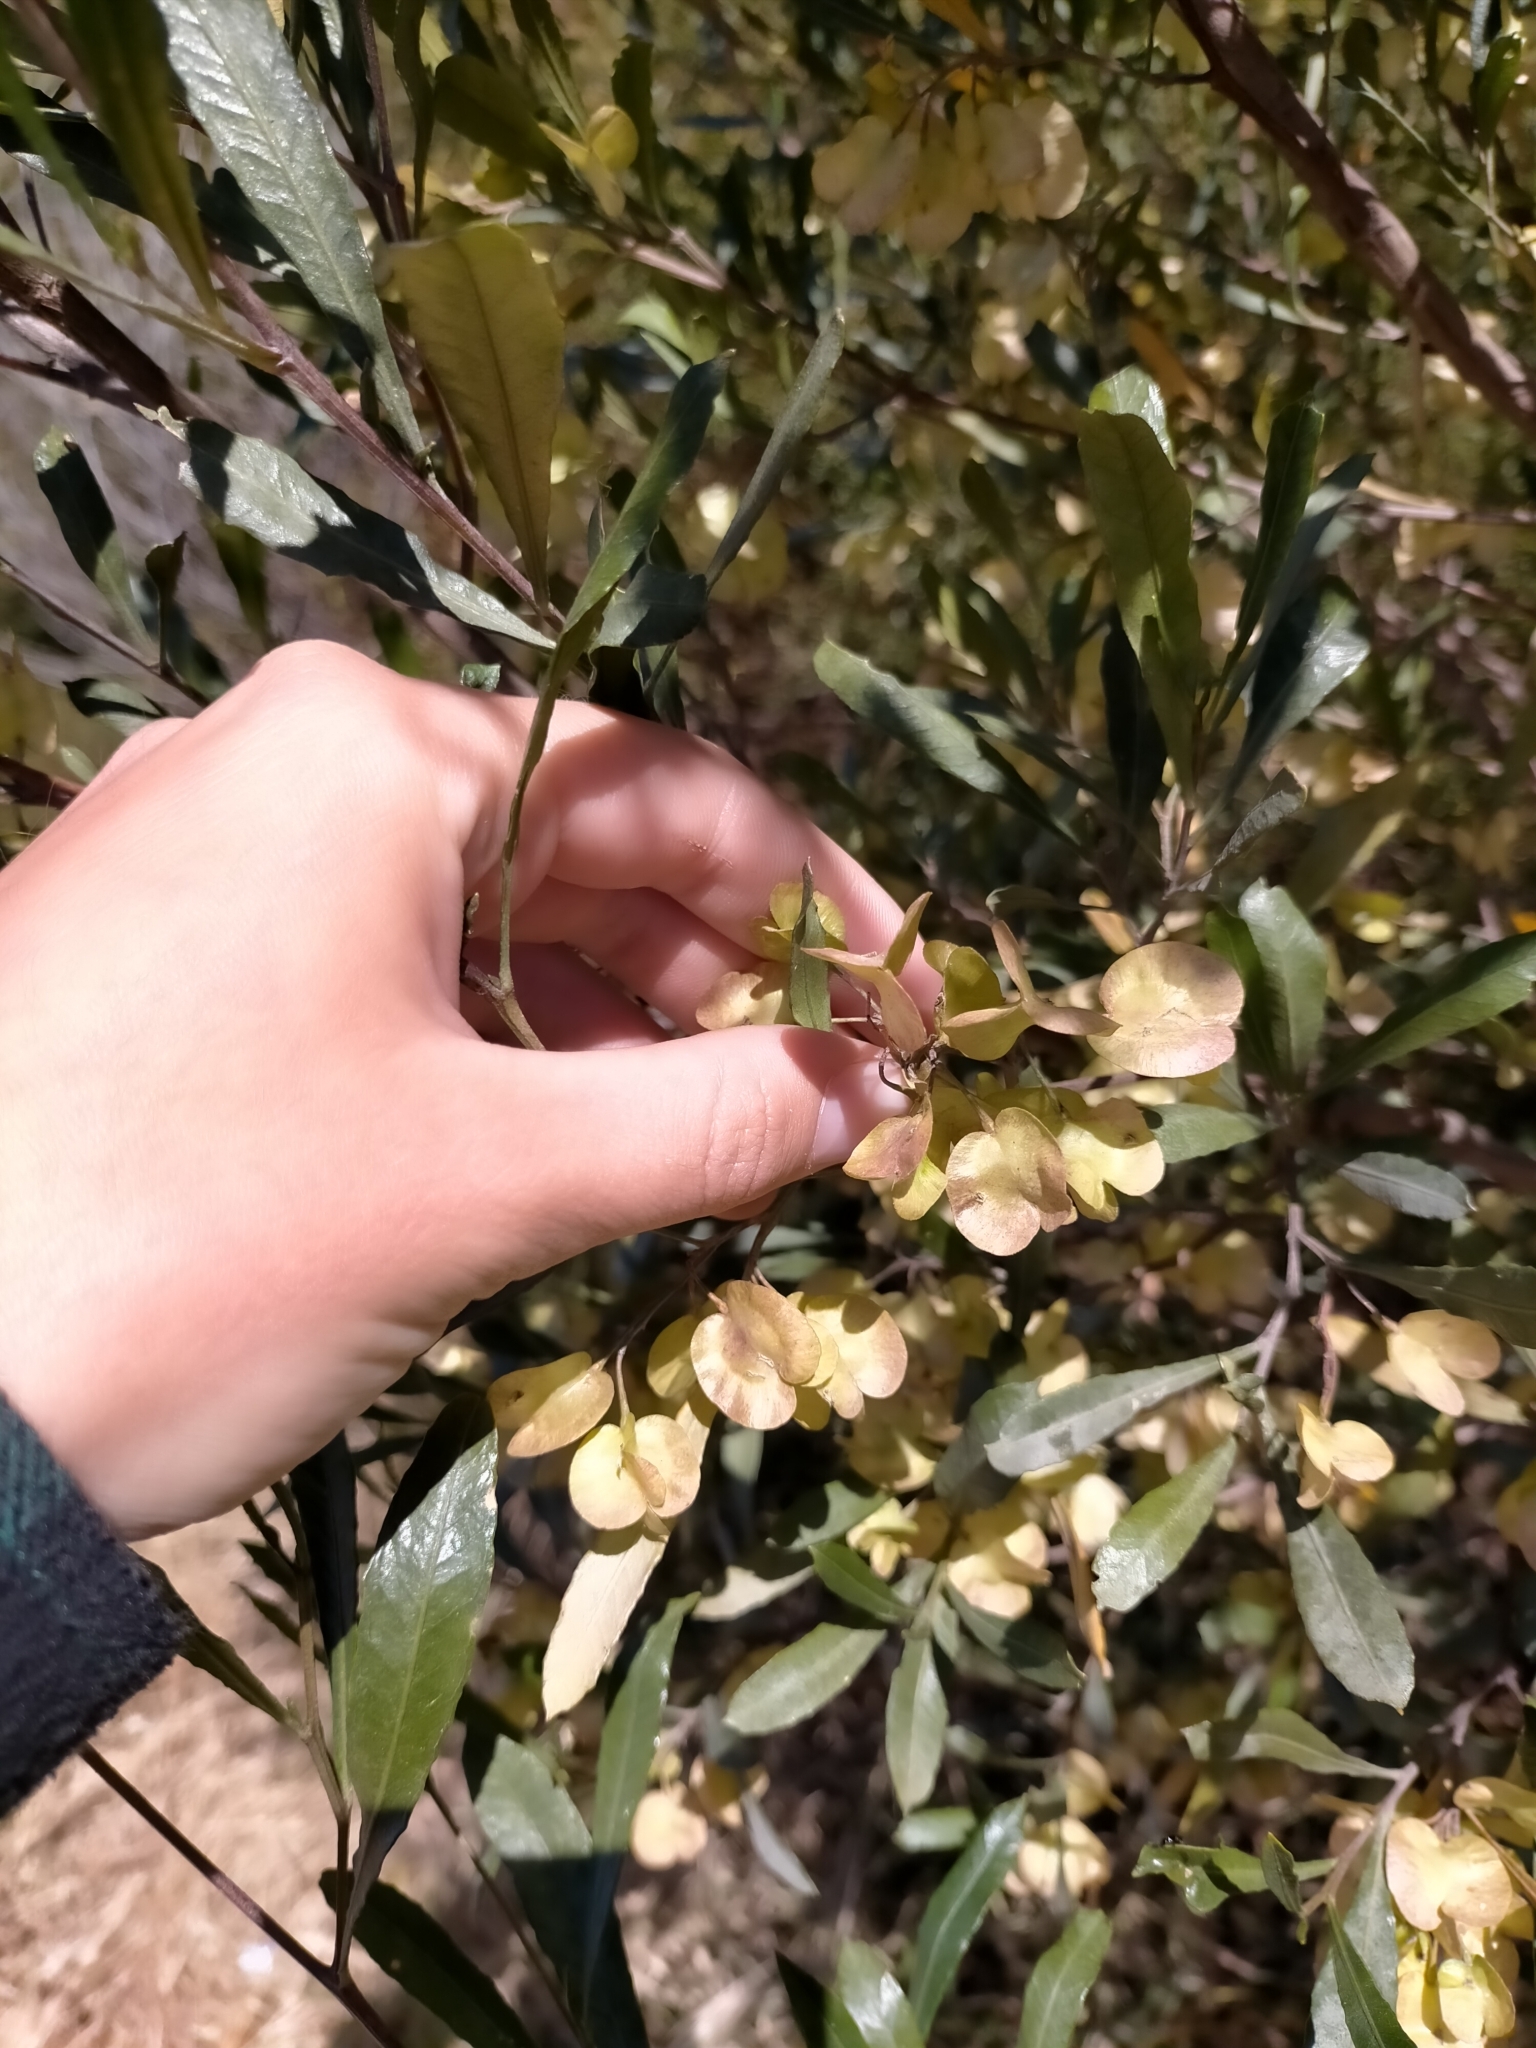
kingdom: Plantae
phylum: Tracheophyta
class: Magnoliopsida
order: Sapindales
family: Sapindaceae
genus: Dodonaea
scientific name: Dodonaea viscosa
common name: Hopbush
